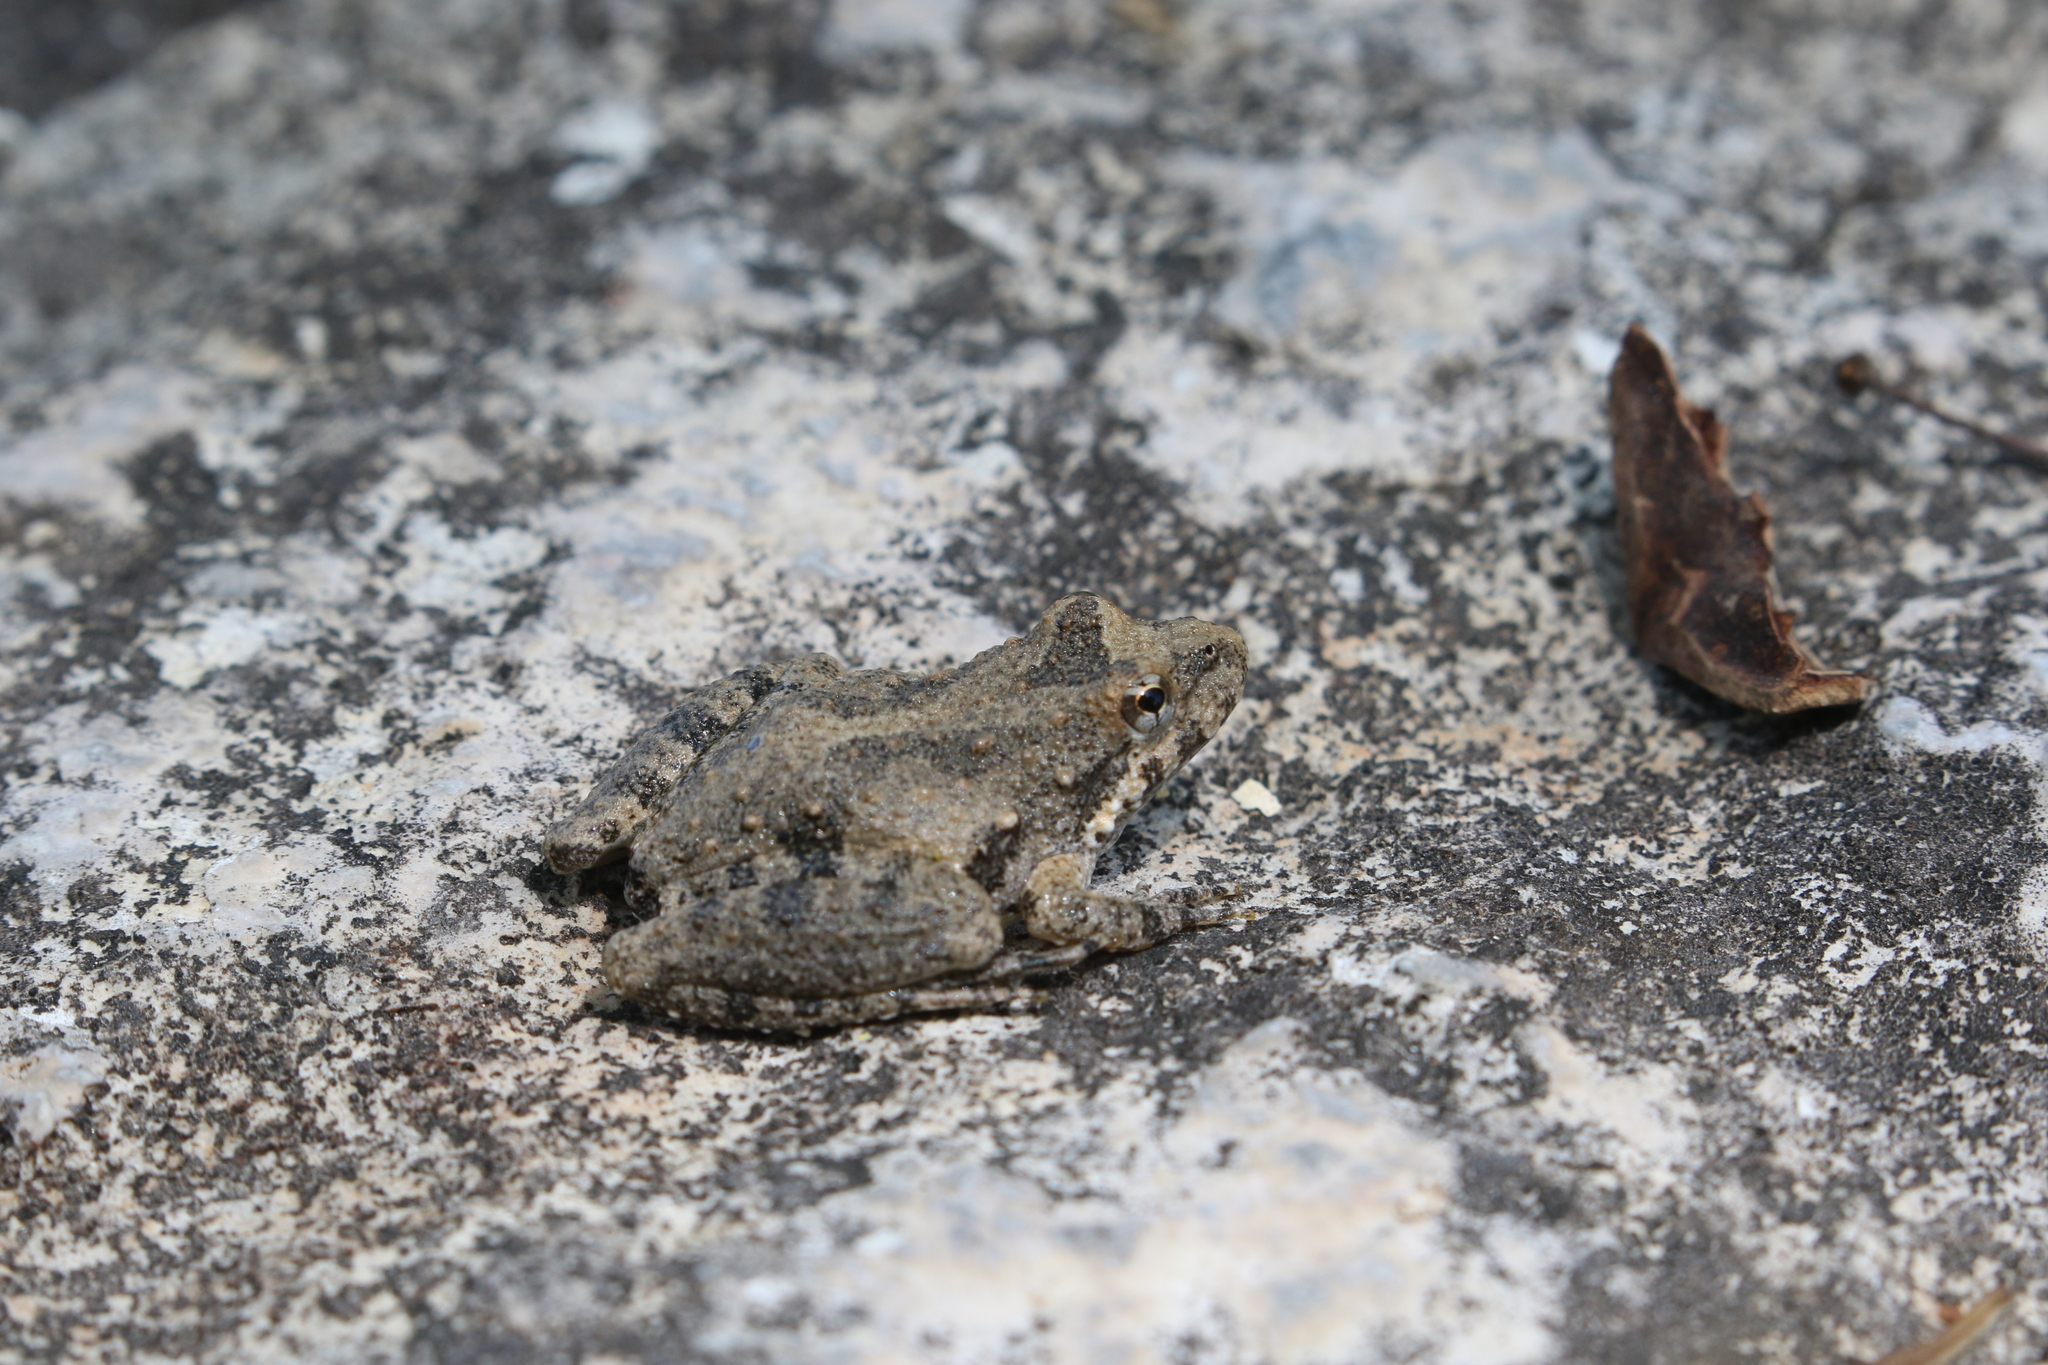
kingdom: Animalia
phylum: Chordata
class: Amphibia
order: Anura
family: Hylidae
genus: Acris
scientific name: Acris blanchardi
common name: Blanchard's cricket frog
